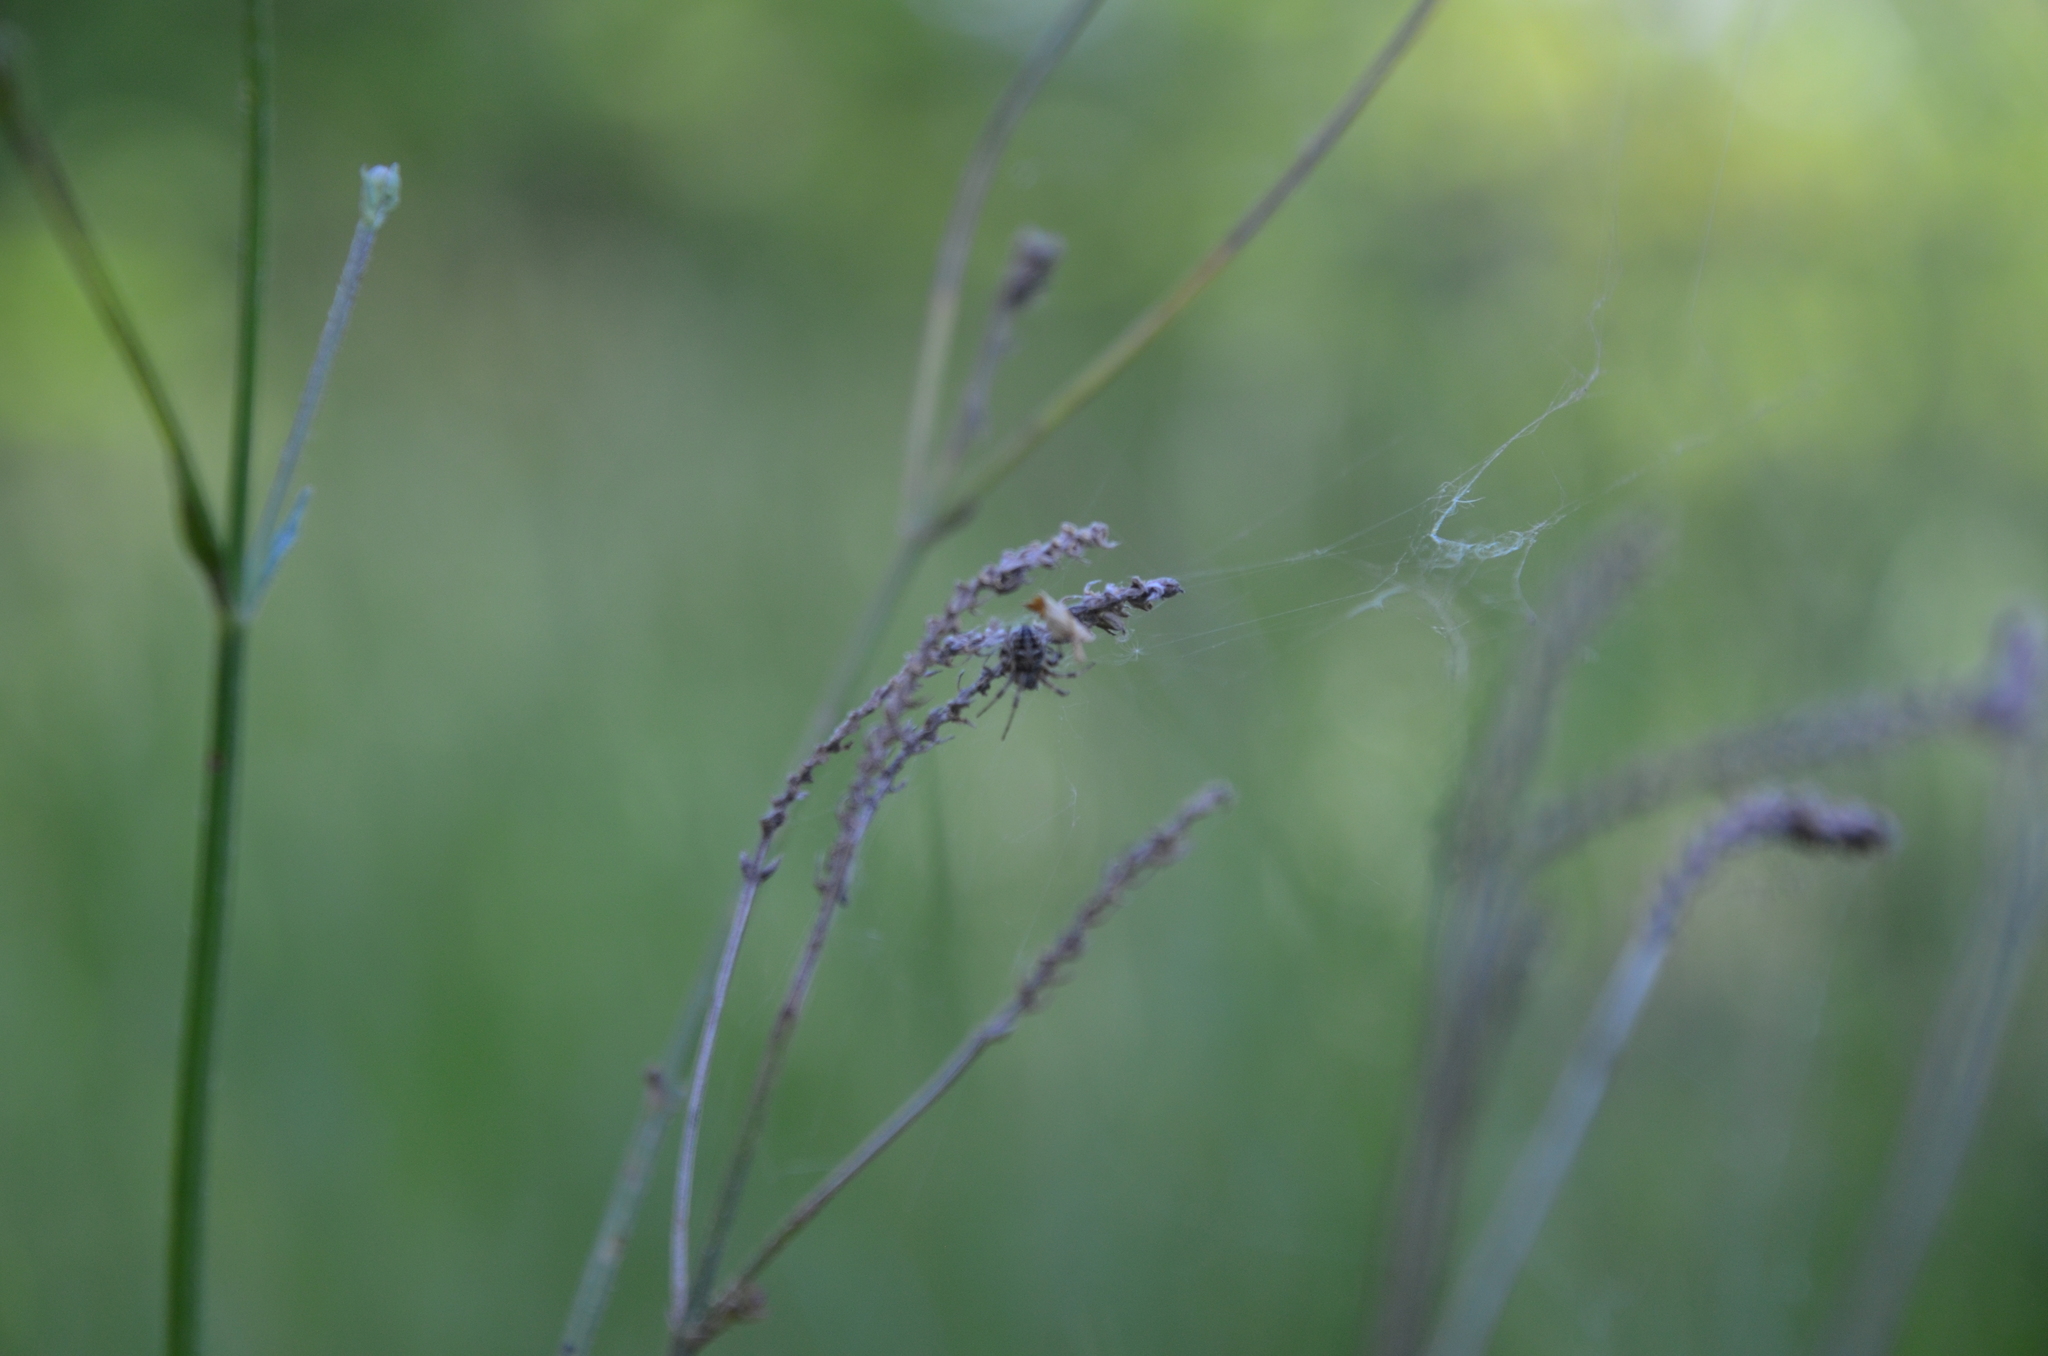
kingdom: Animalia
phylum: Arthropoda
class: Arachnida
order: Araneae
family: Araneidae
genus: Metepeira
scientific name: Metepeira
